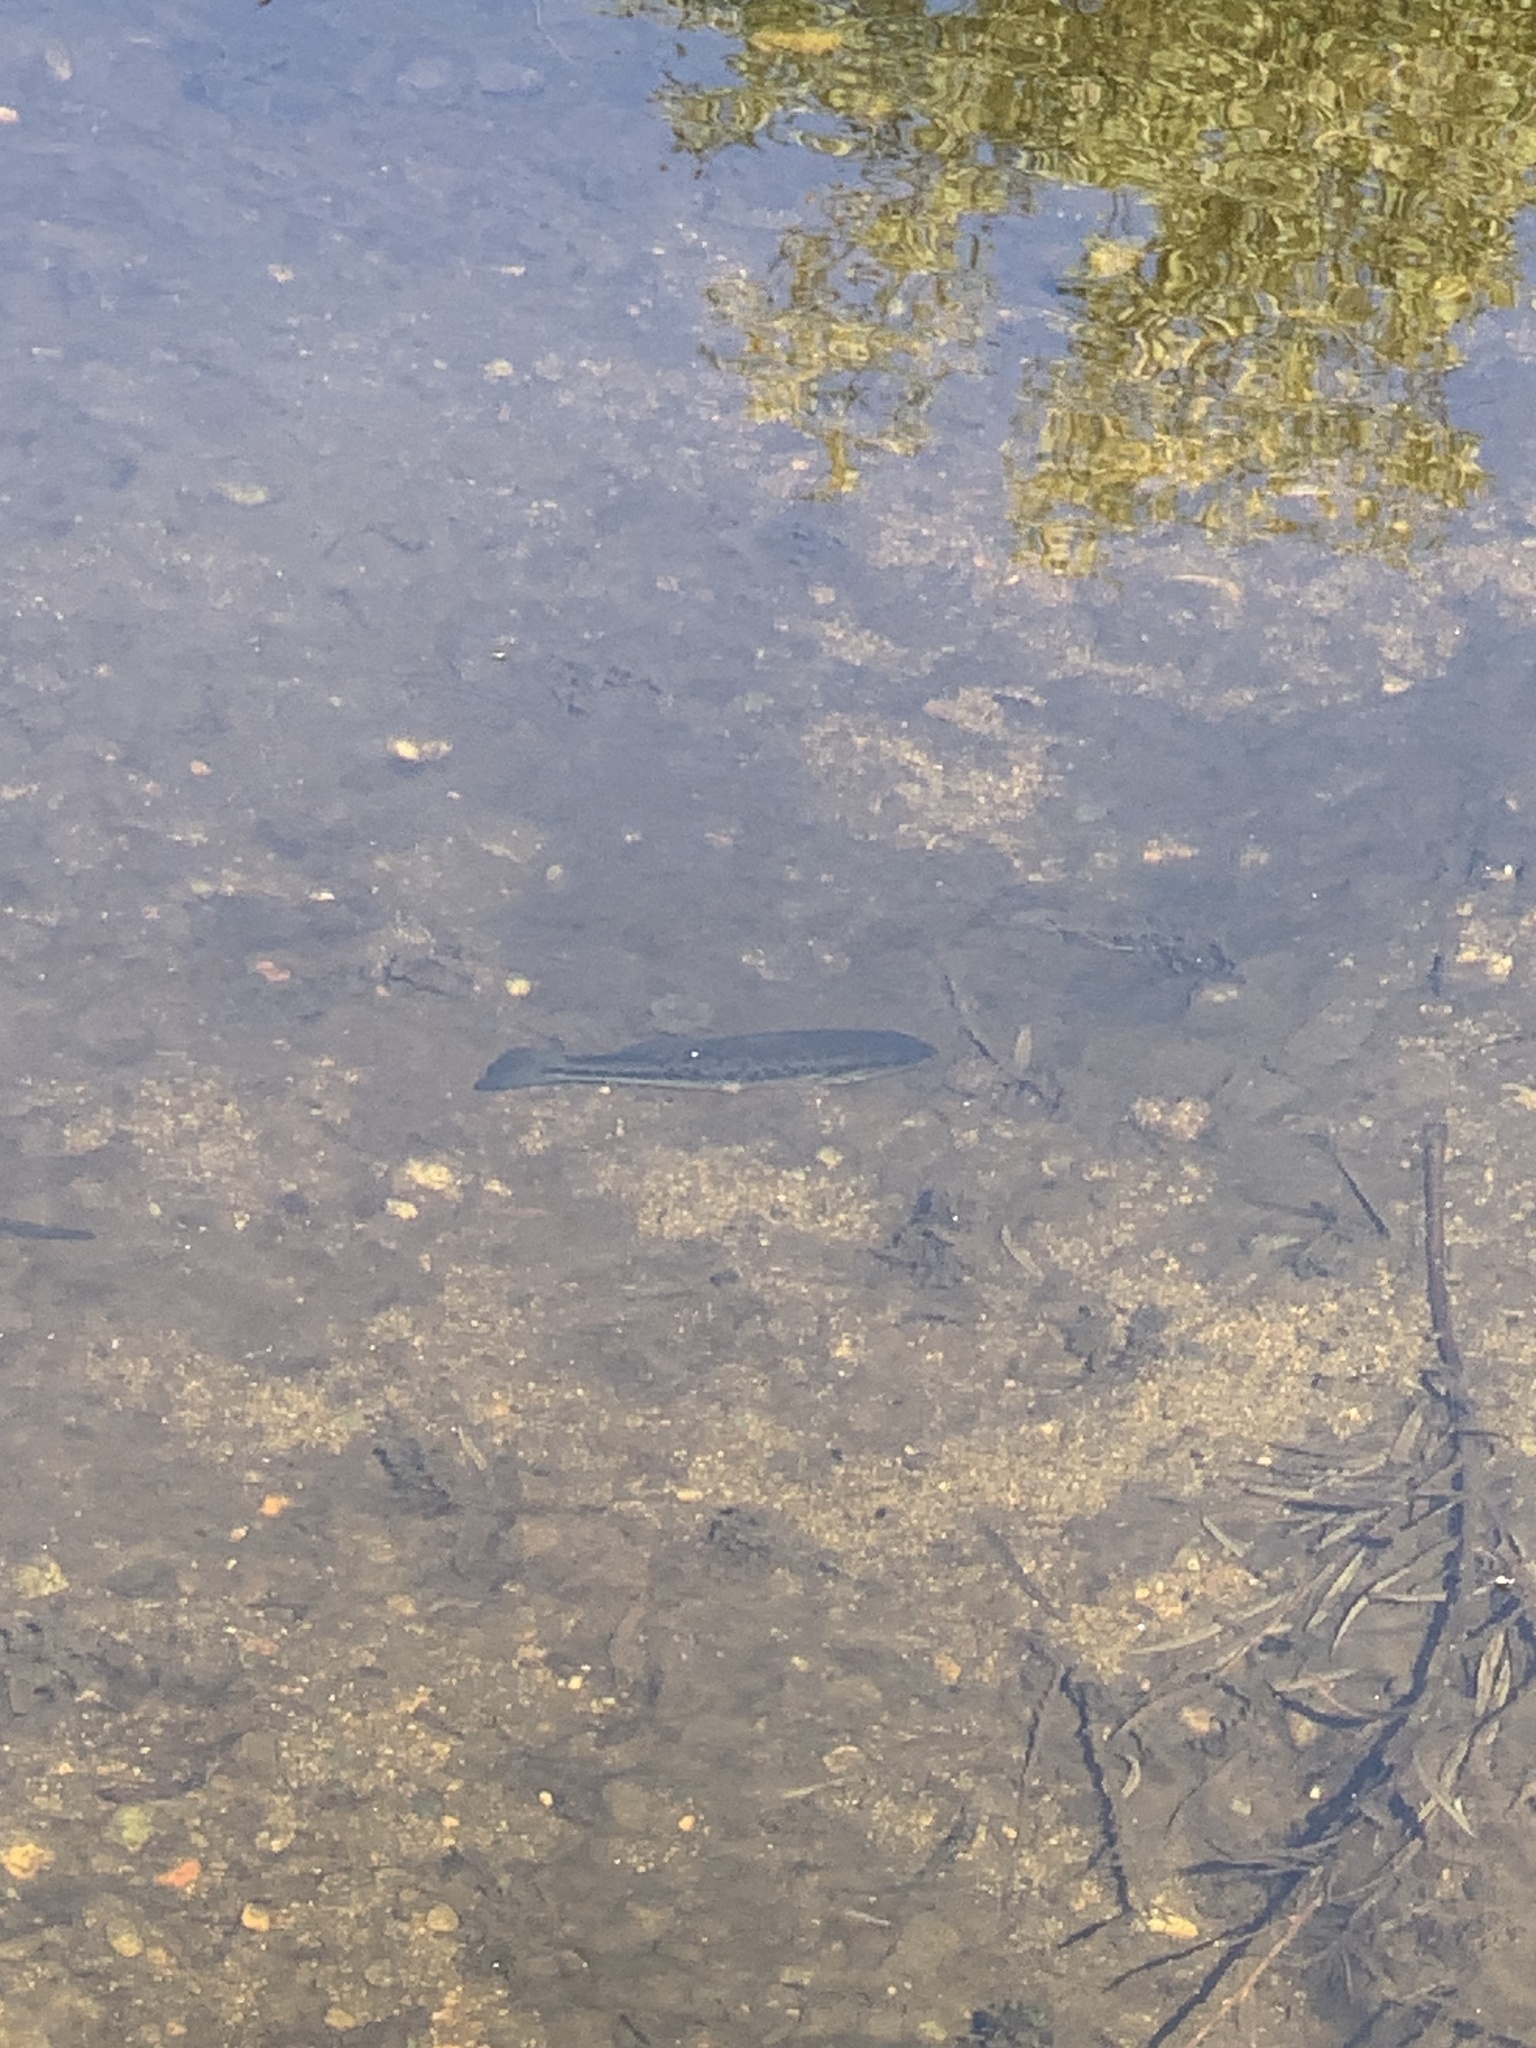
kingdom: Animalia
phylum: Chordata
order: Perciformes
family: Centrarchidae
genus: Micropterus
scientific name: Micropterus
